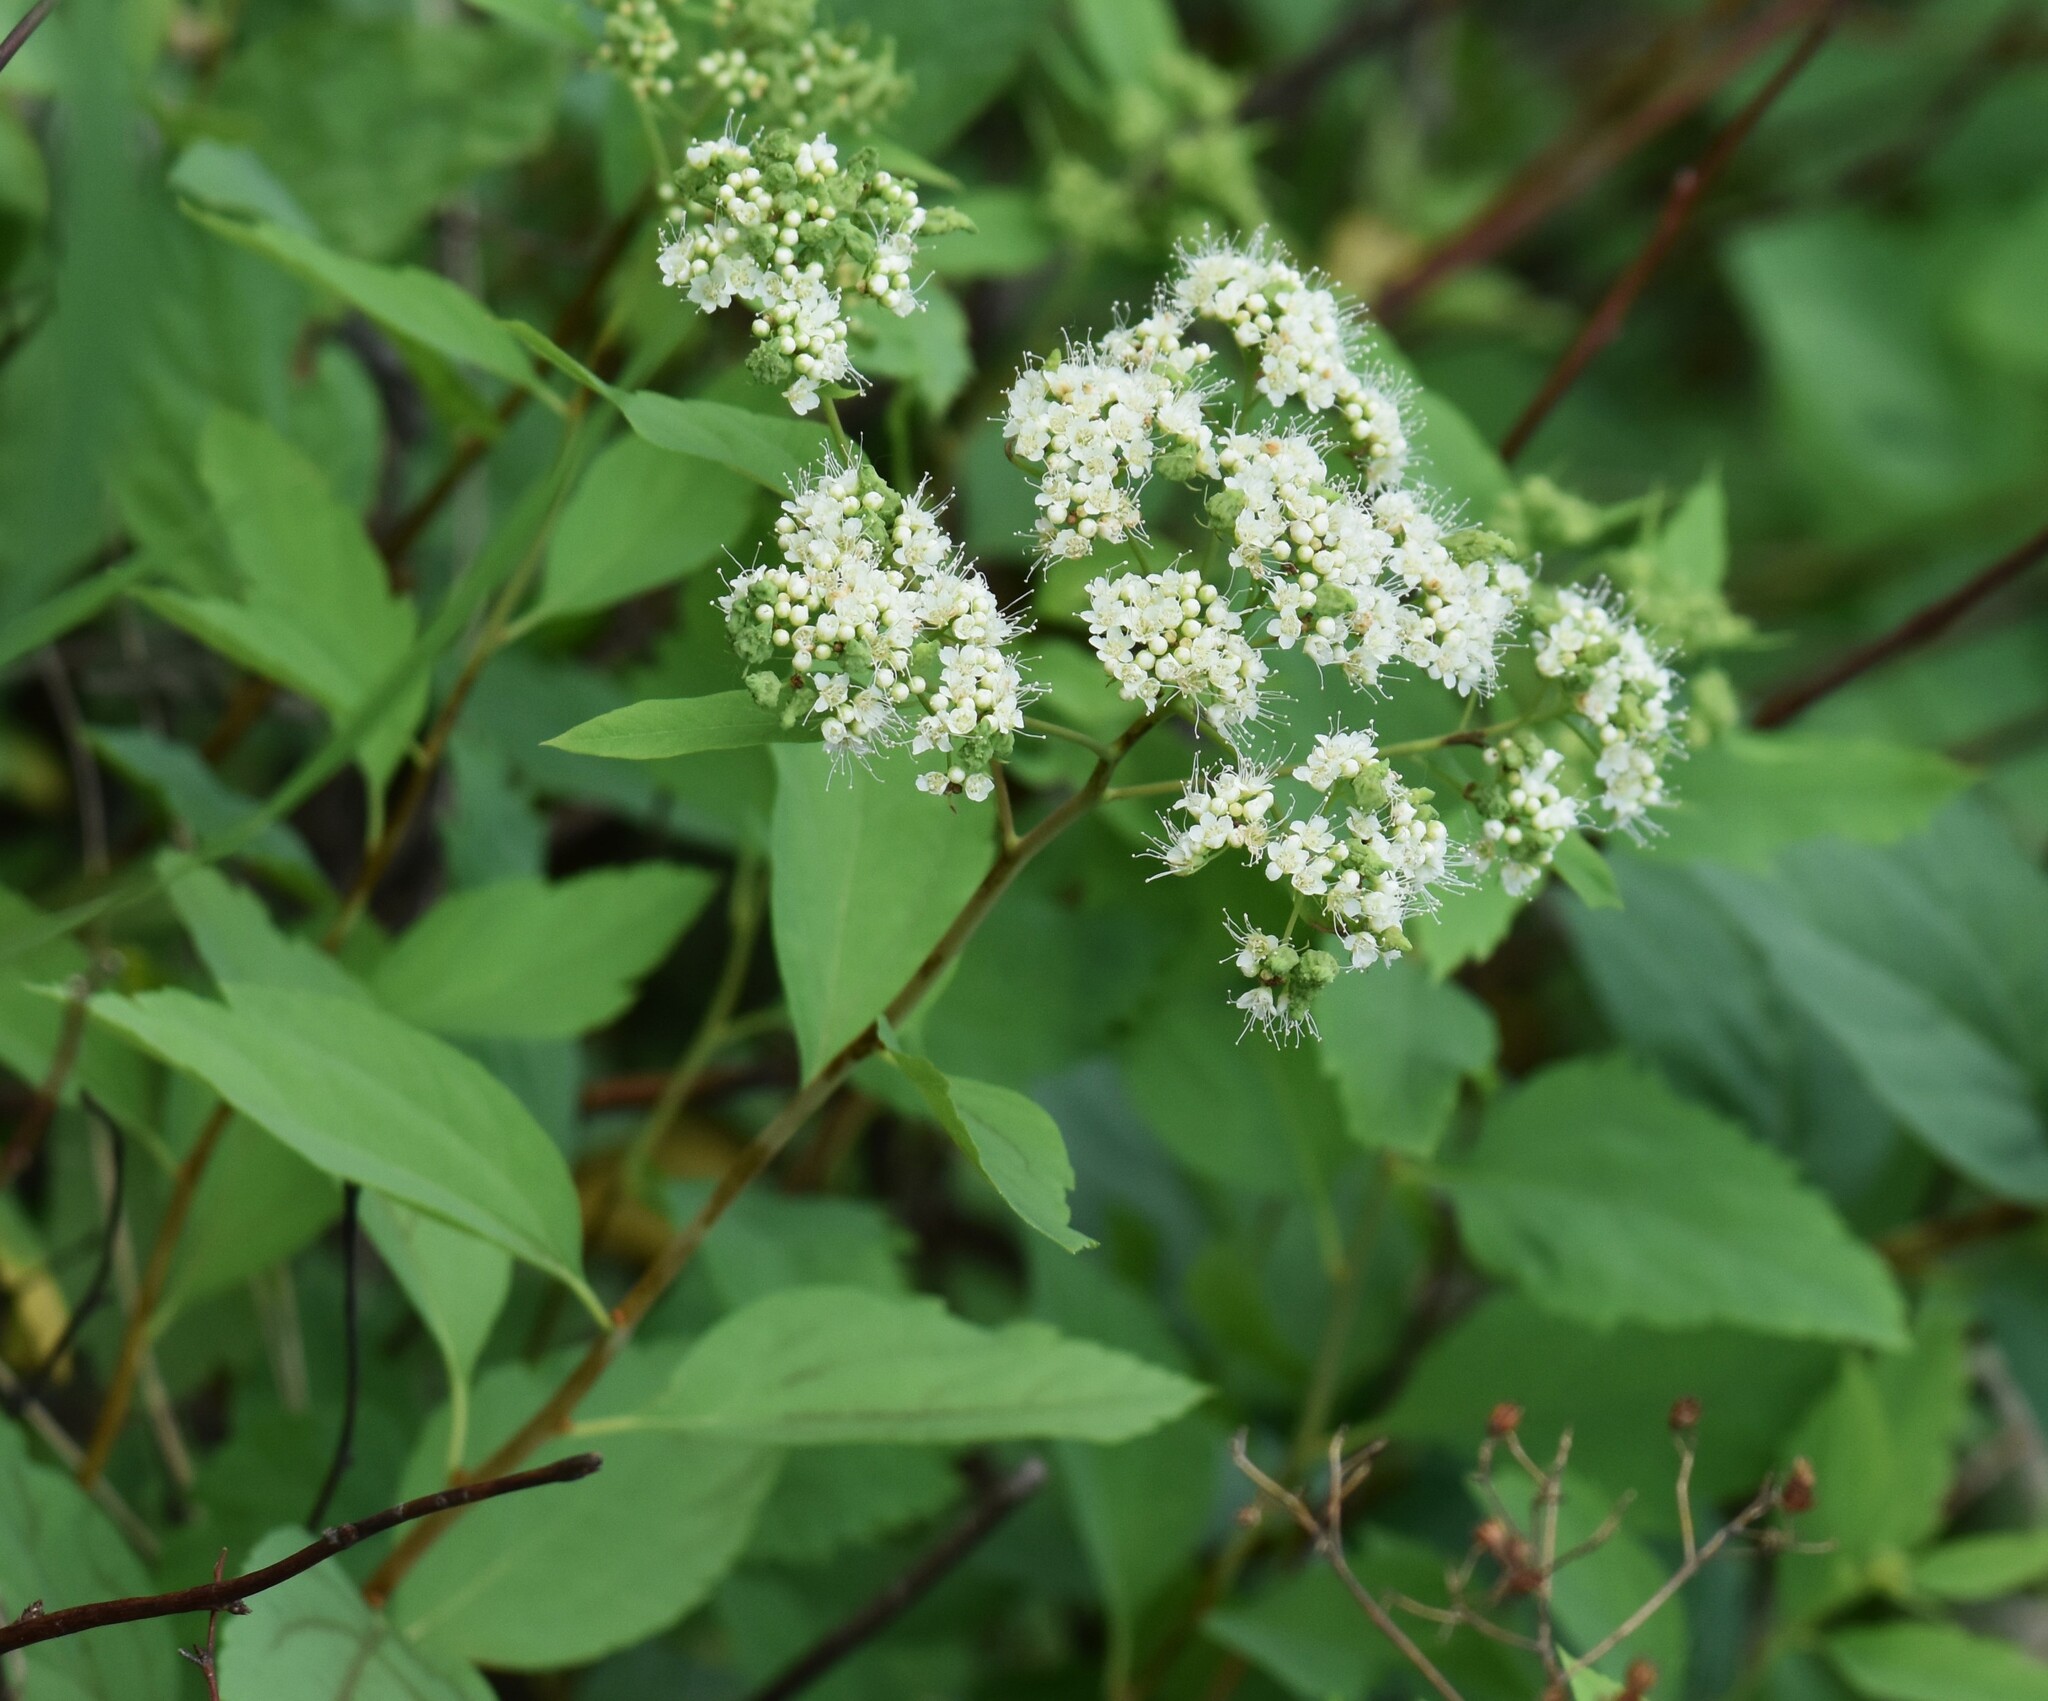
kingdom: Plantae
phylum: Tracheophyta
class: Magnoliopsida
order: Rosales
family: Rosaceae
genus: Spiraea
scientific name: Spiraea lucida
